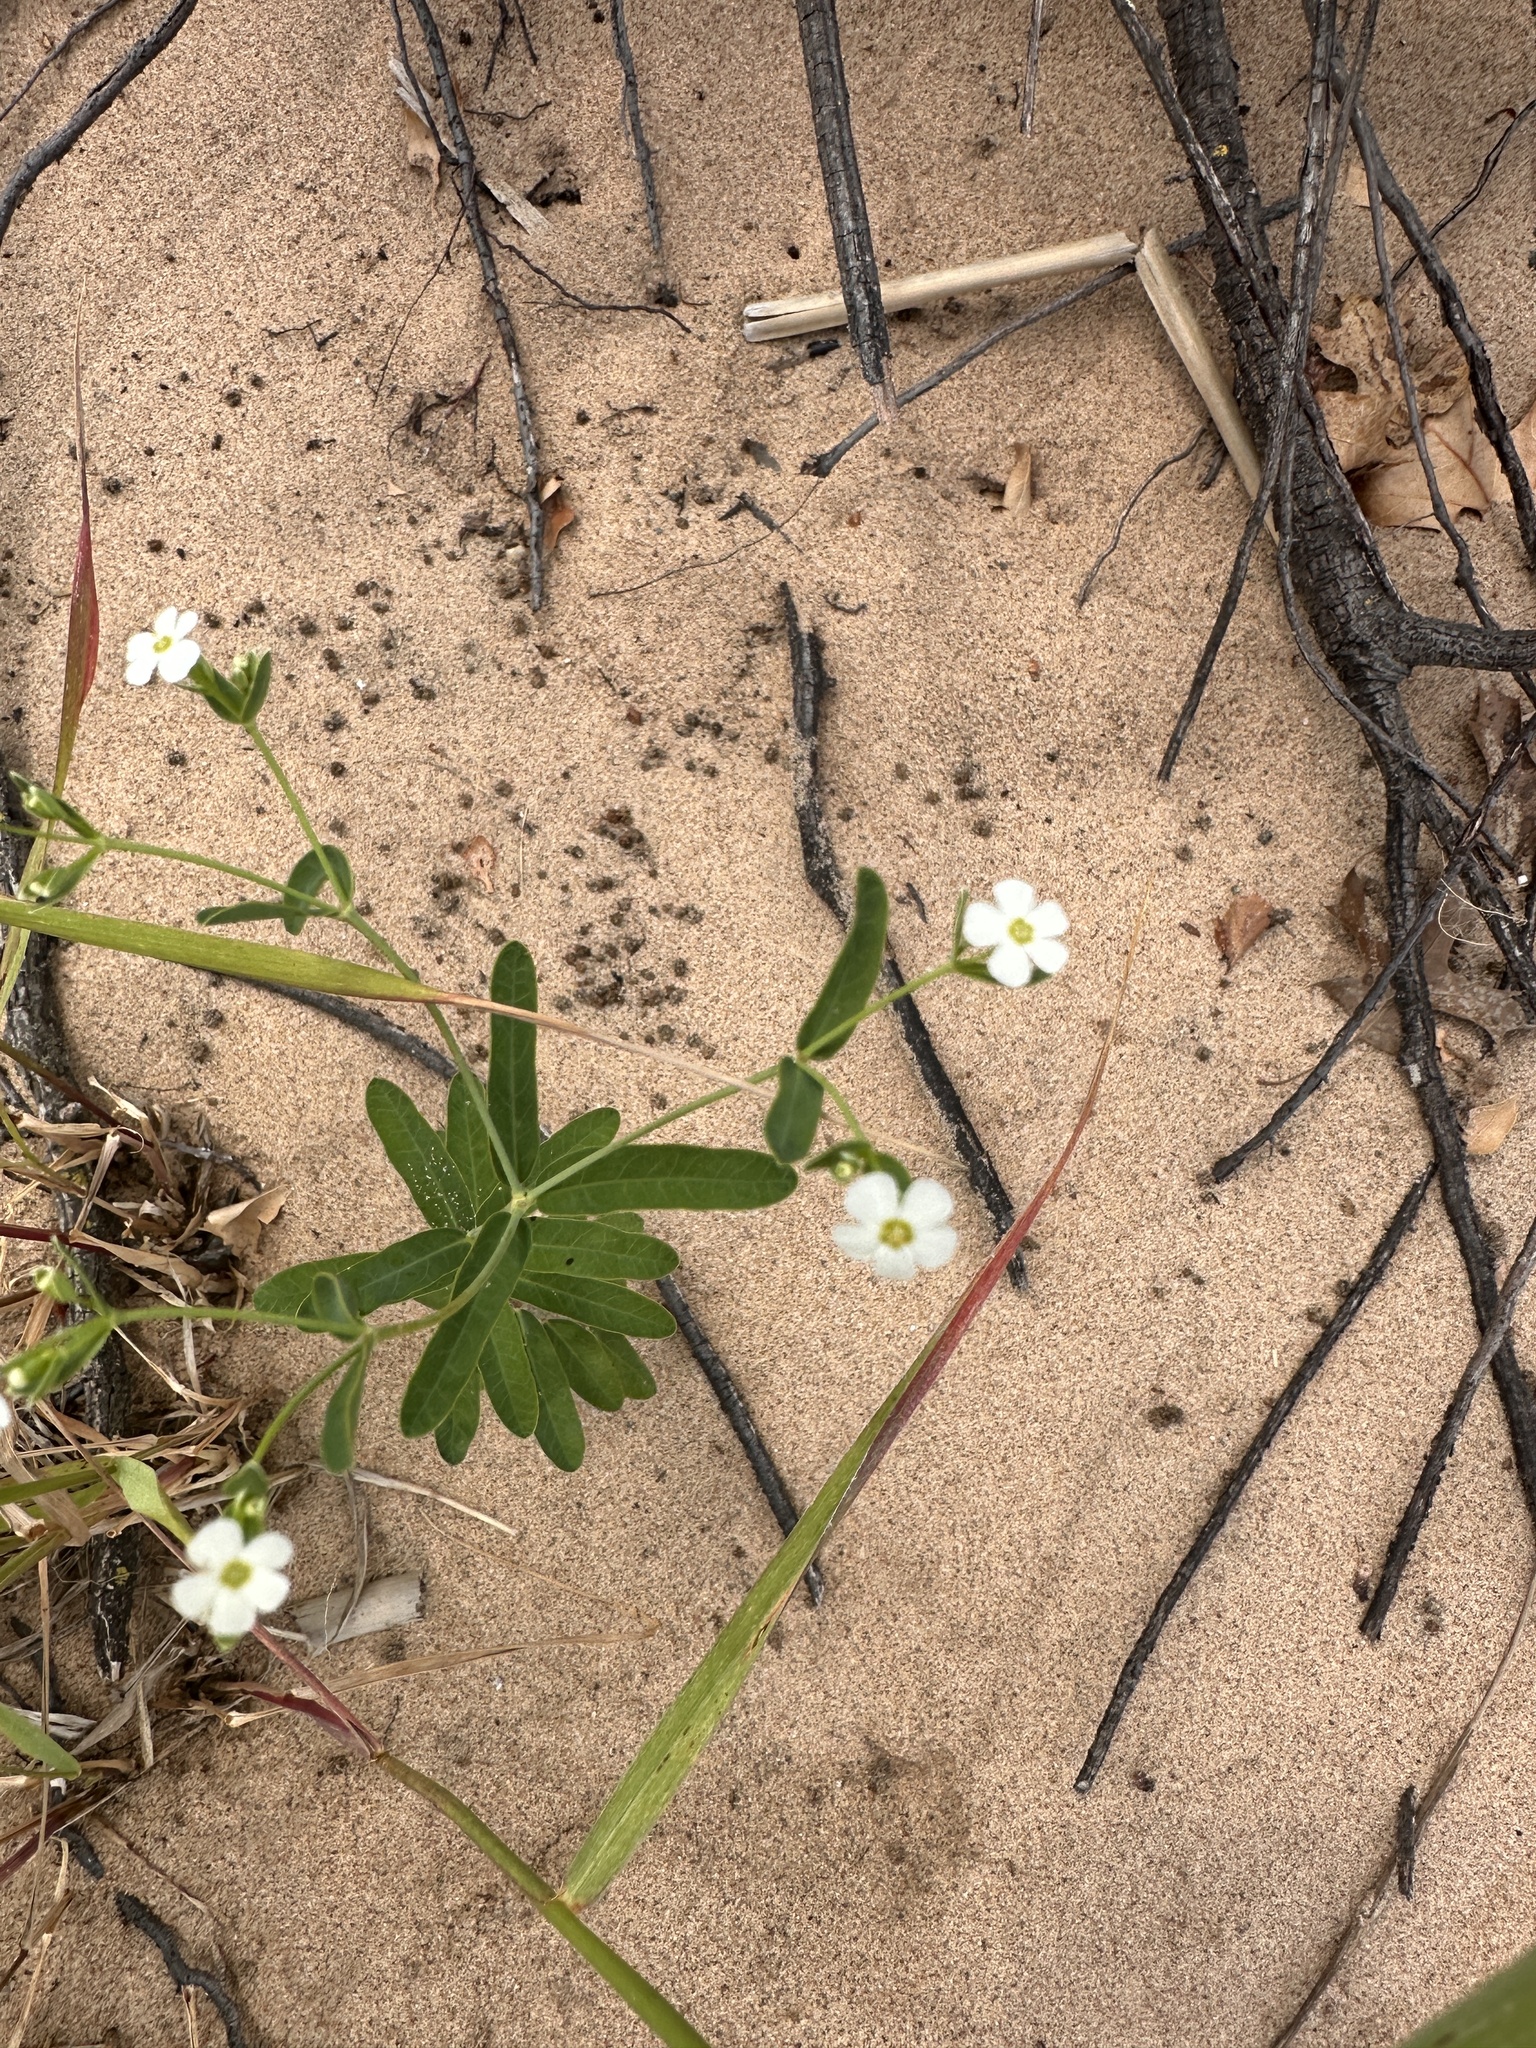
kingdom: Plantae
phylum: Tracheophyta
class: Magnoliopsida
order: Malpighiales
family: Euphorbiaceae
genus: Euphorbia
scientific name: Euphorbia corollata
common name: Flowering spurge
